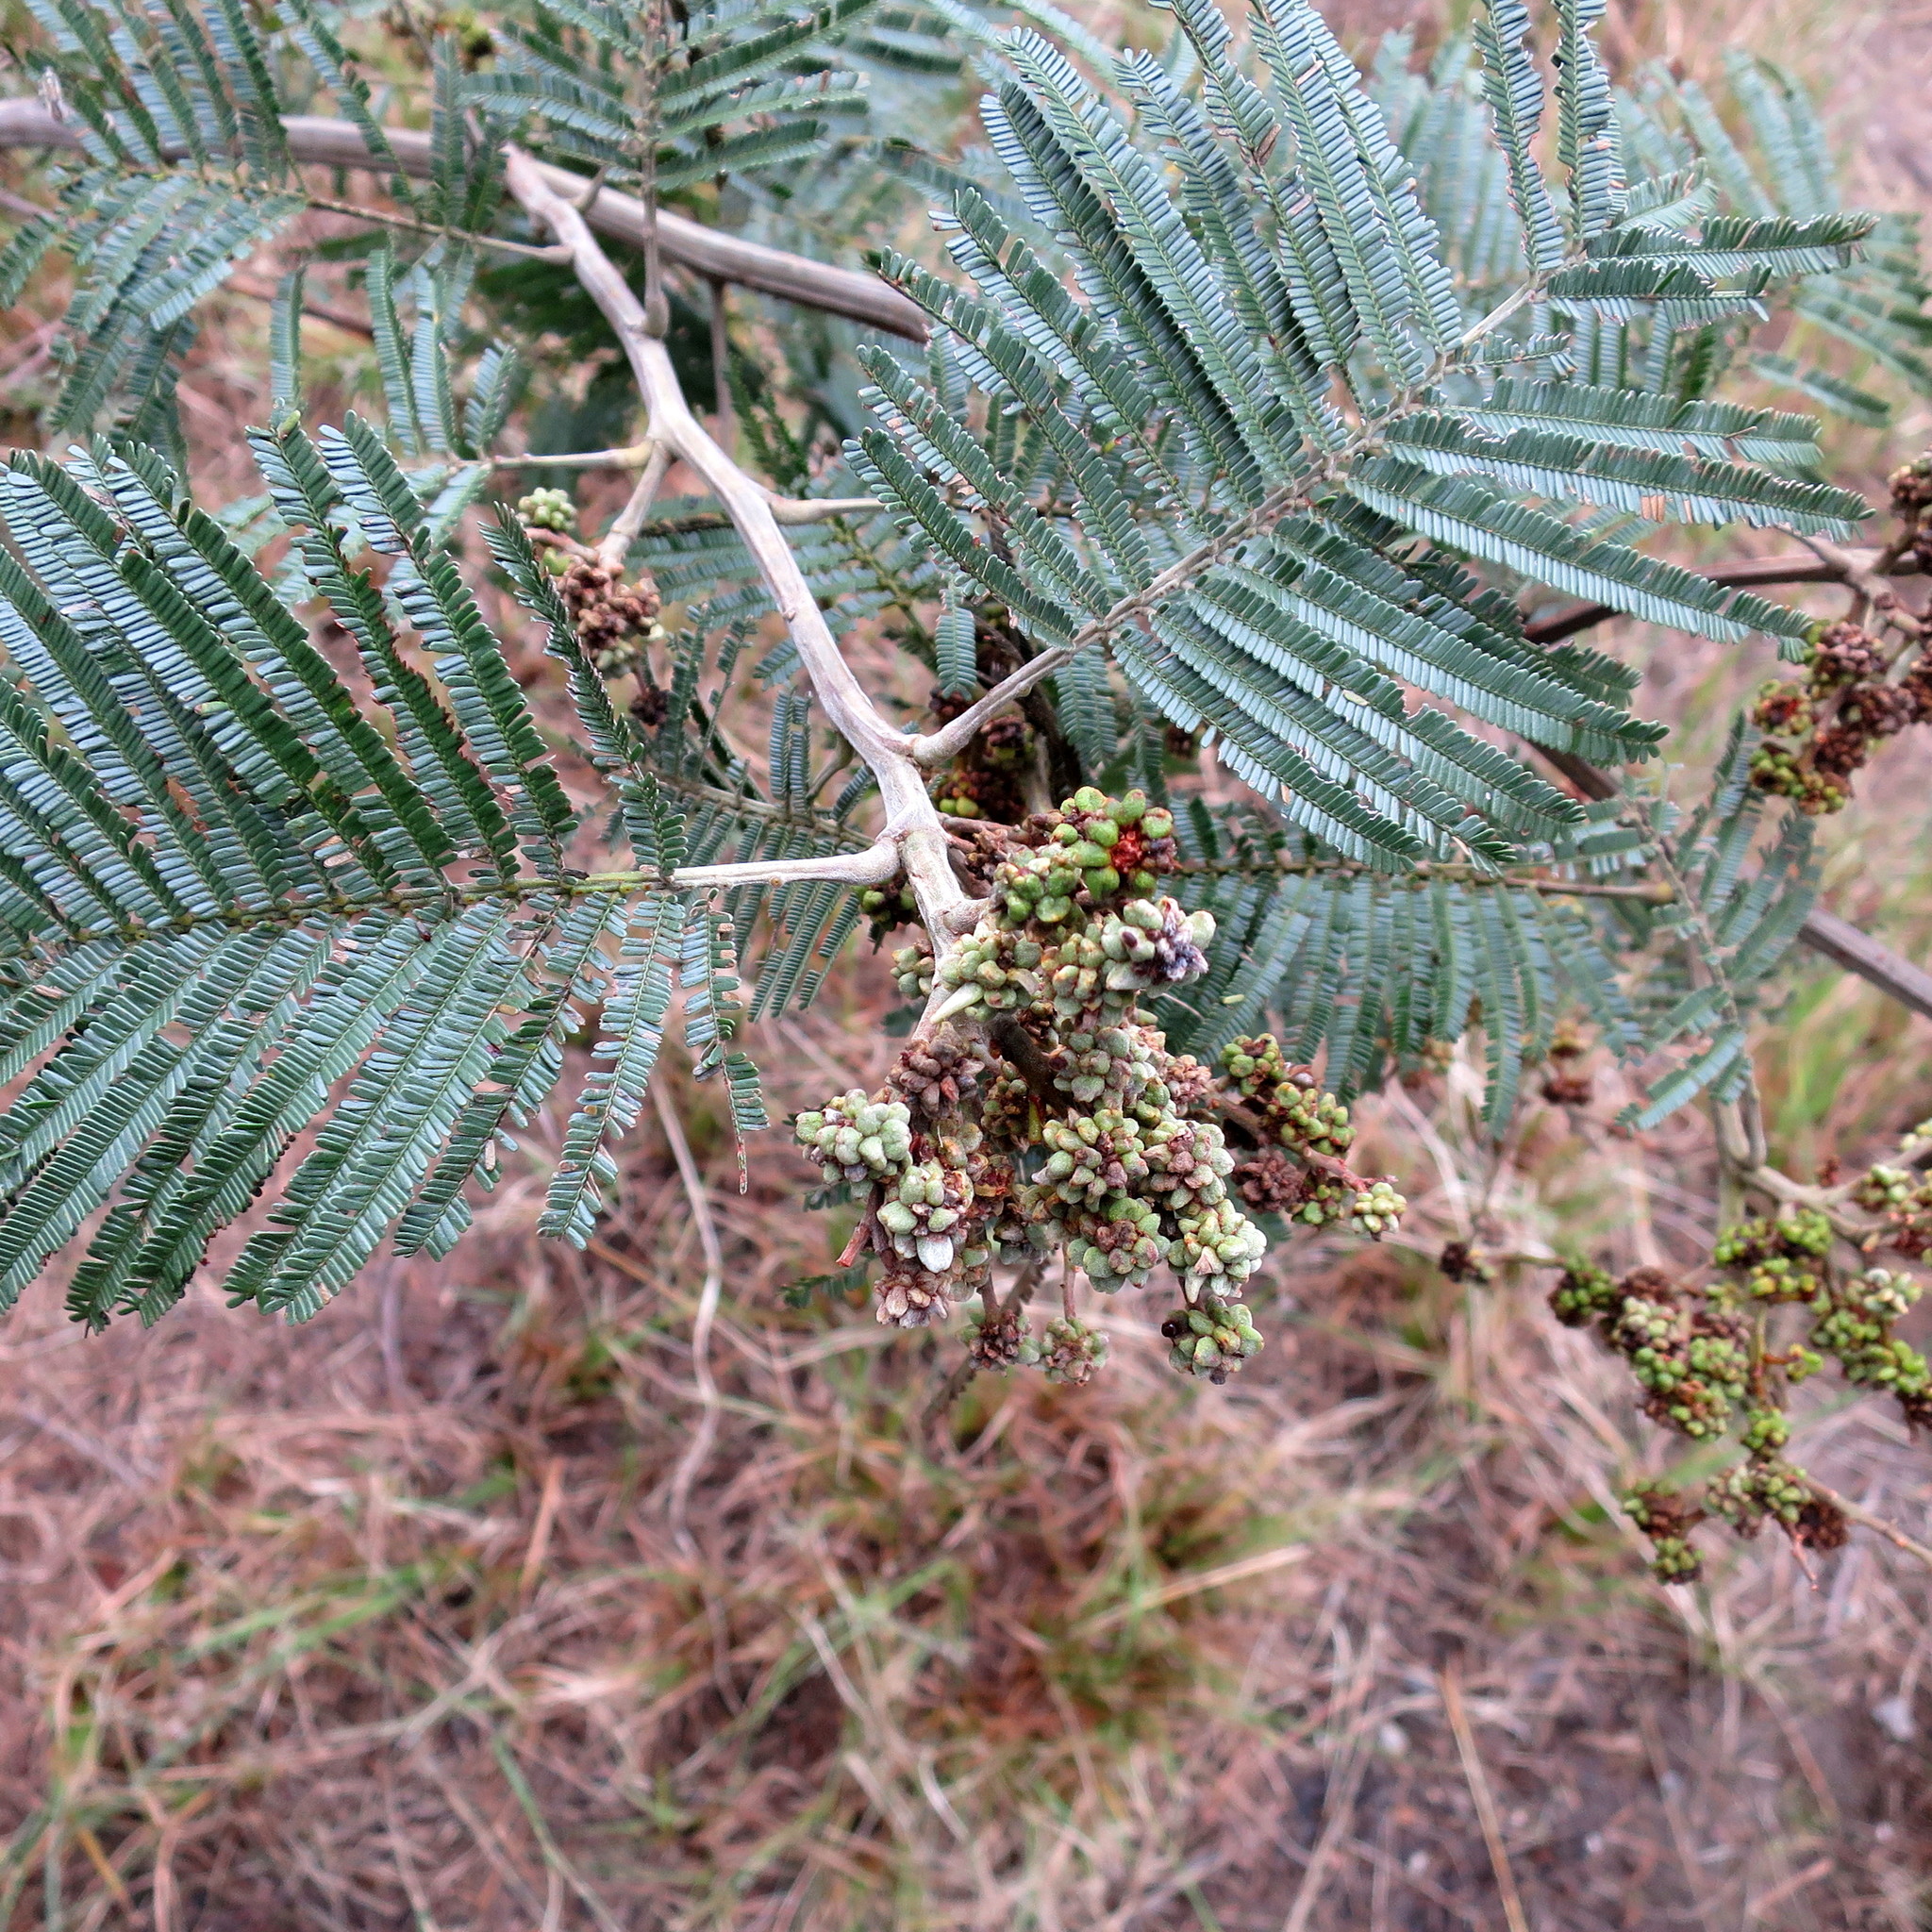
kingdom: Plantae
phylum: Tracheophyta
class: Magnoliopsida
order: Fabales
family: Fabaceae
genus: Acacia
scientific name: Acacia mearnsii
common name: Black wattle
